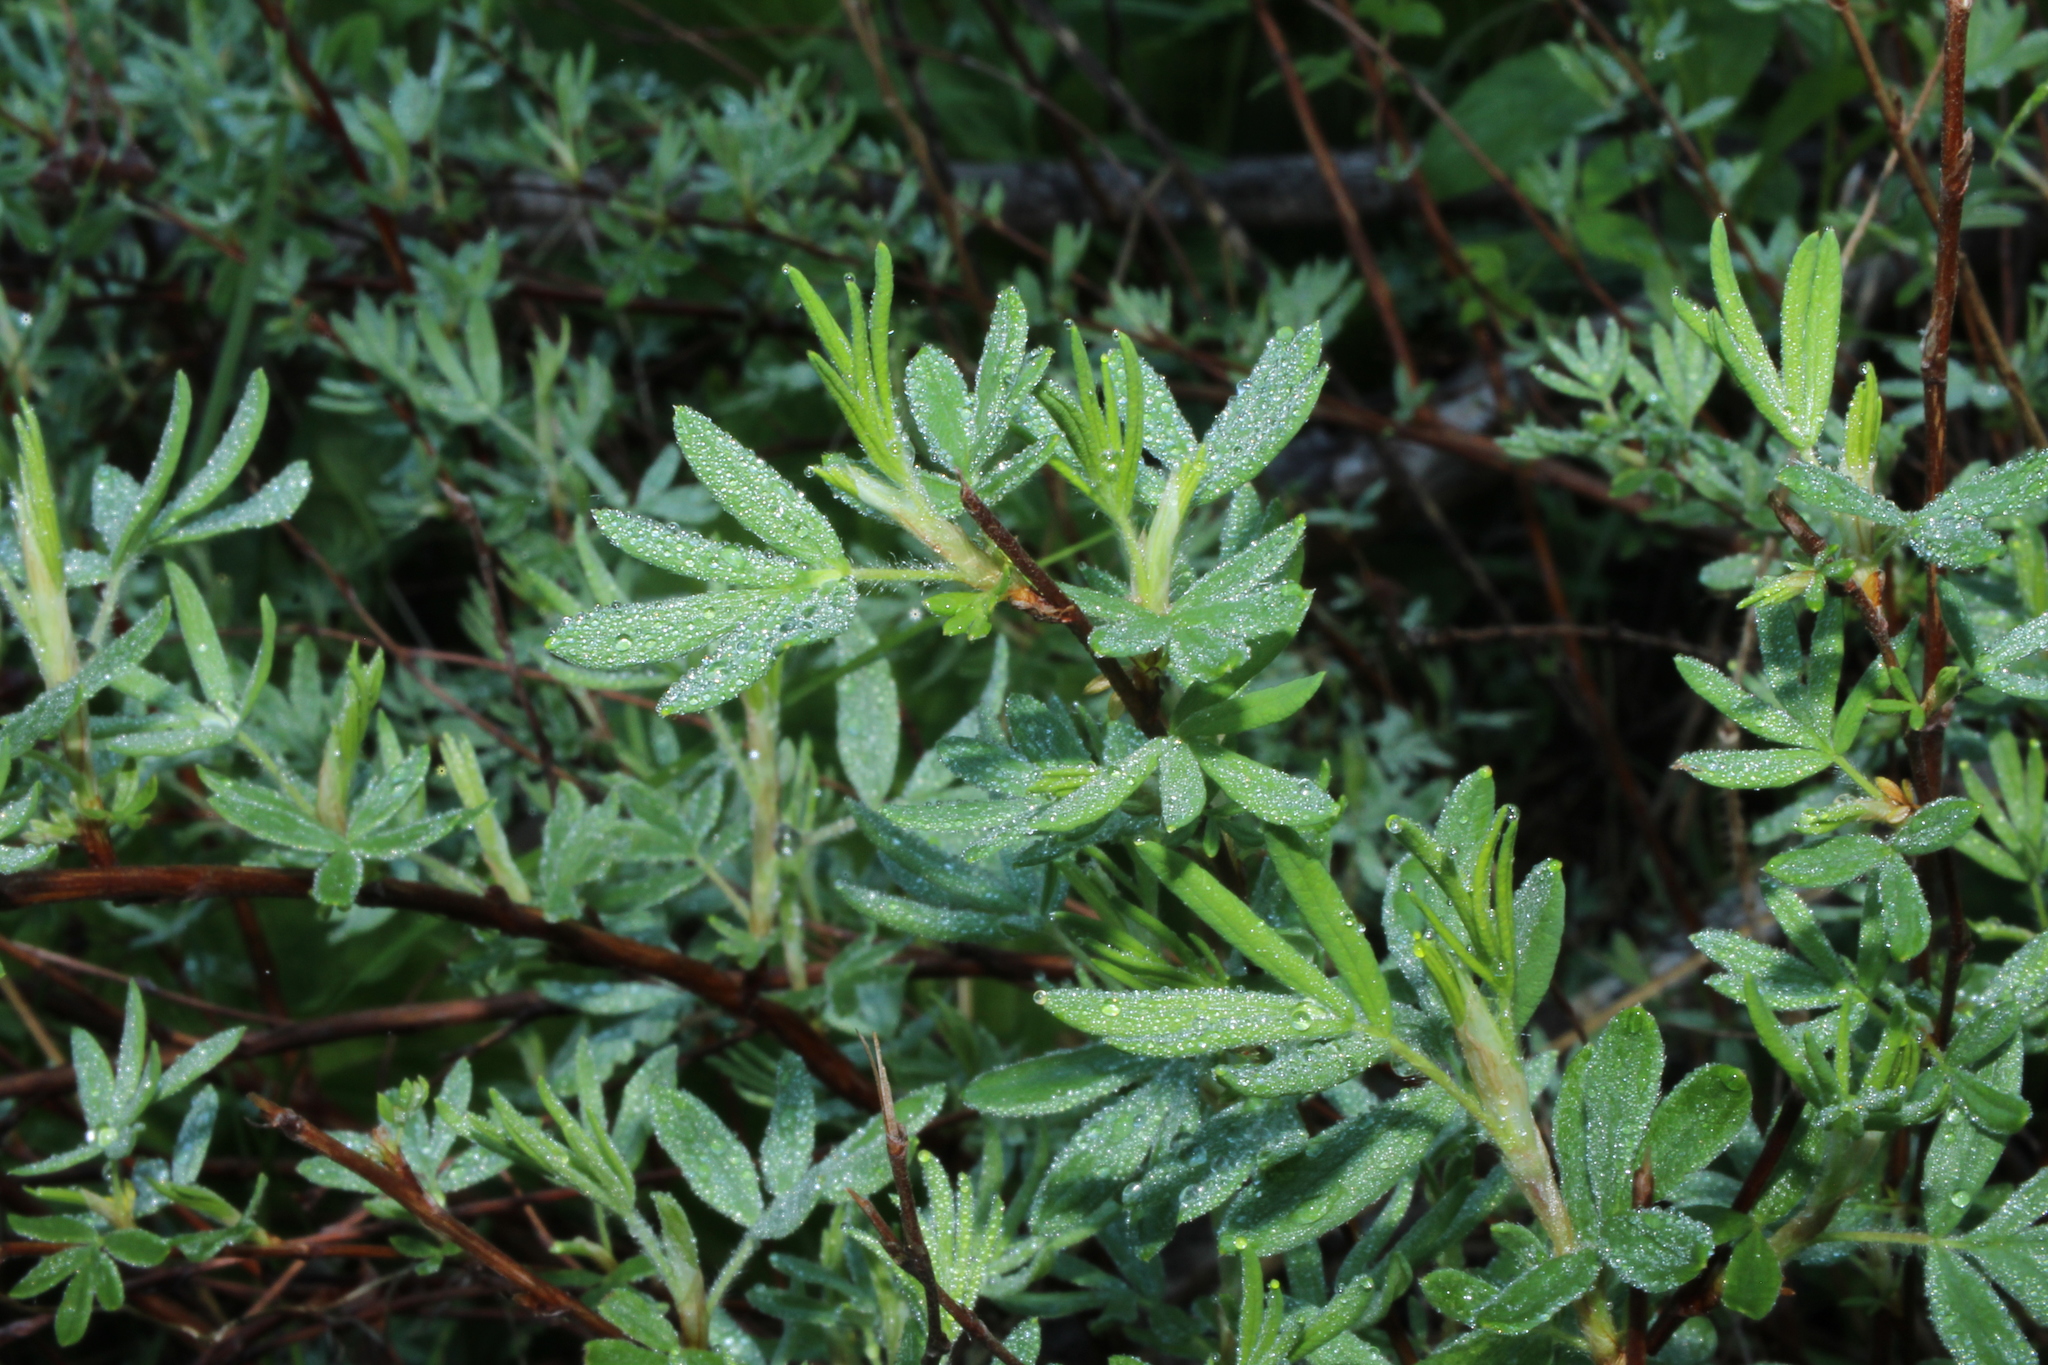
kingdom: Plantae
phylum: Tracheophyta
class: Magnoliopsida
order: Rosales
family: Rosaceae
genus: Dasiphora
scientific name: Dasiphora fruticosa
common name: Shrubby cinquefoil
